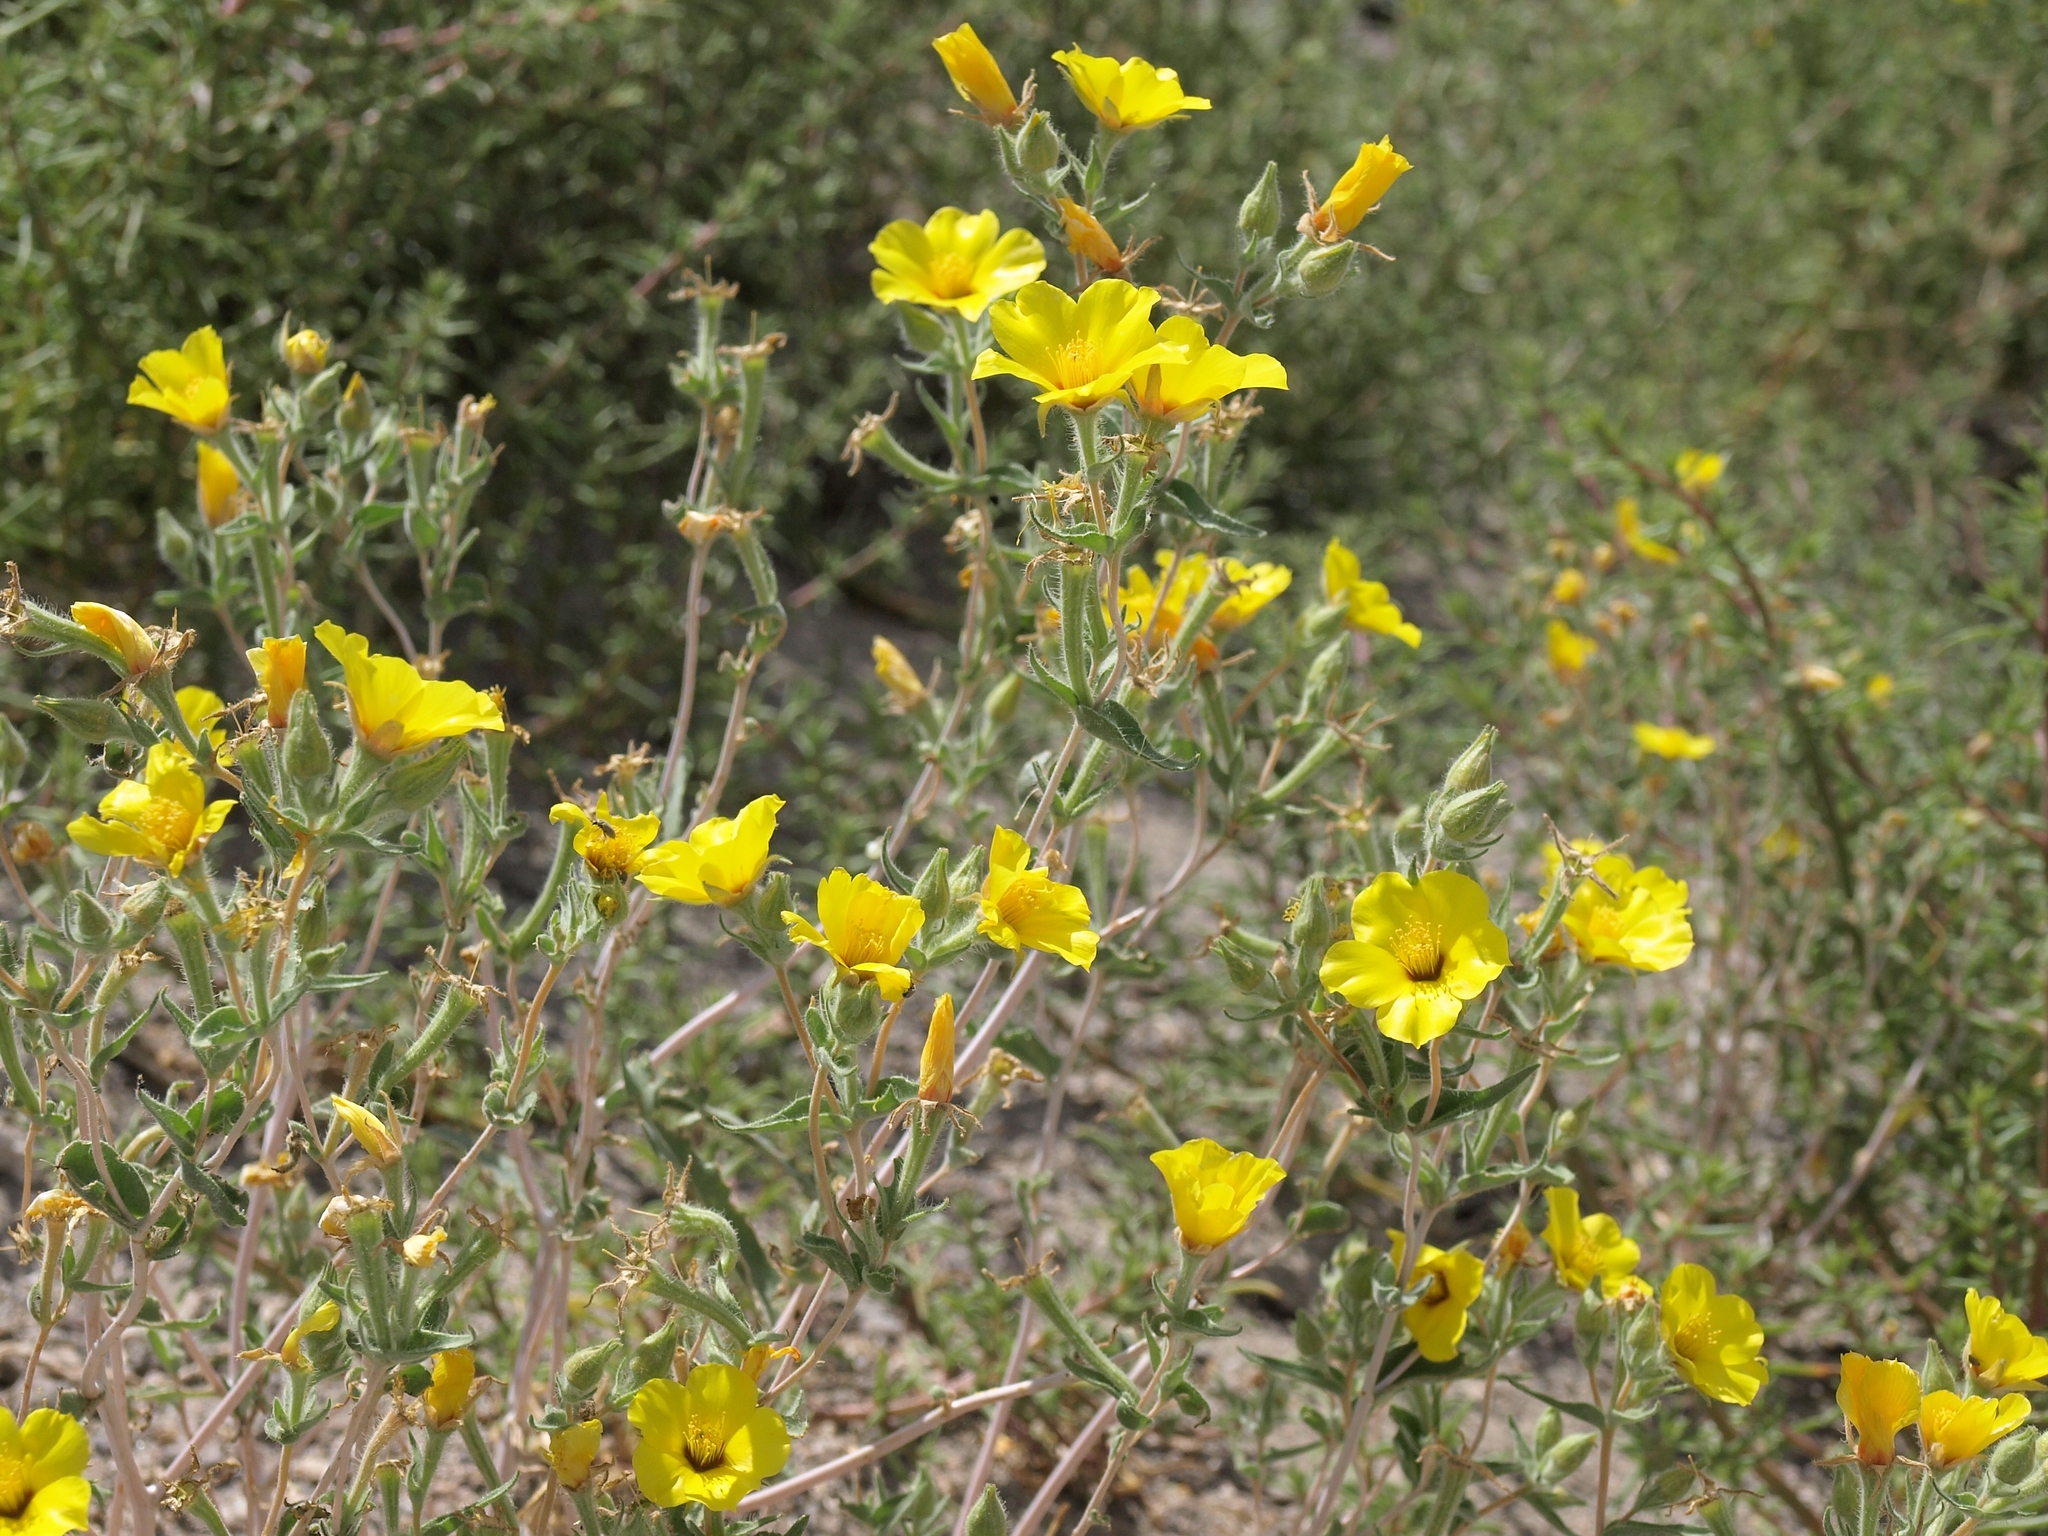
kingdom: Plantae
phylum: Tracheophyta
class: Magnoliopsida
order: Cornales
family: Loasaceae
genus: Mentzelia
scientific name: Mentzelia nitens
